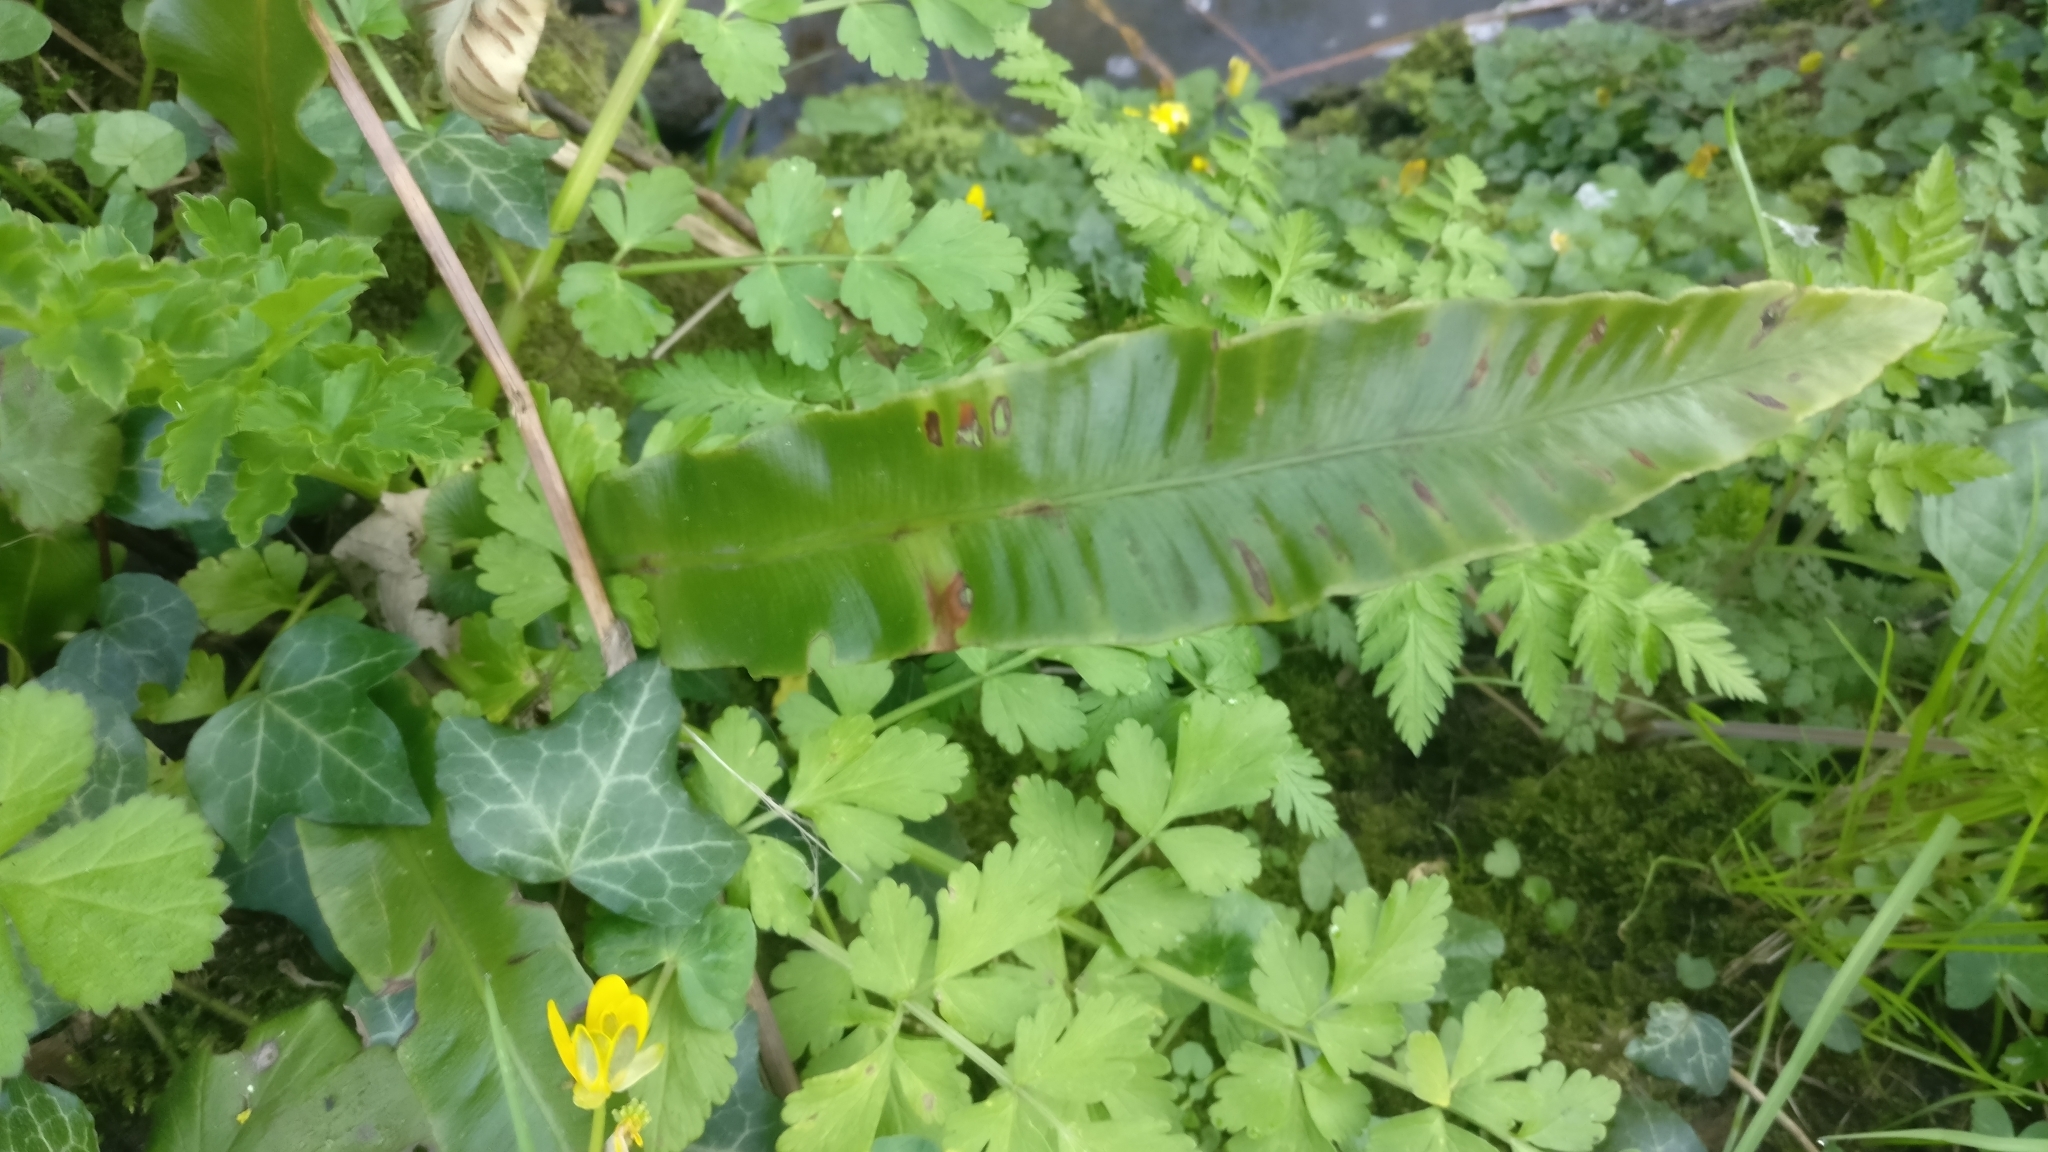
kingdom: Plantae
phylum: Tracheophyta
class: Polypodiopsida
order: Polypodiales
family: Aspleniaceae
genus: Asplenium
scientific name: Asplenium scolopendrium
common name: Hart's-tongue fern
